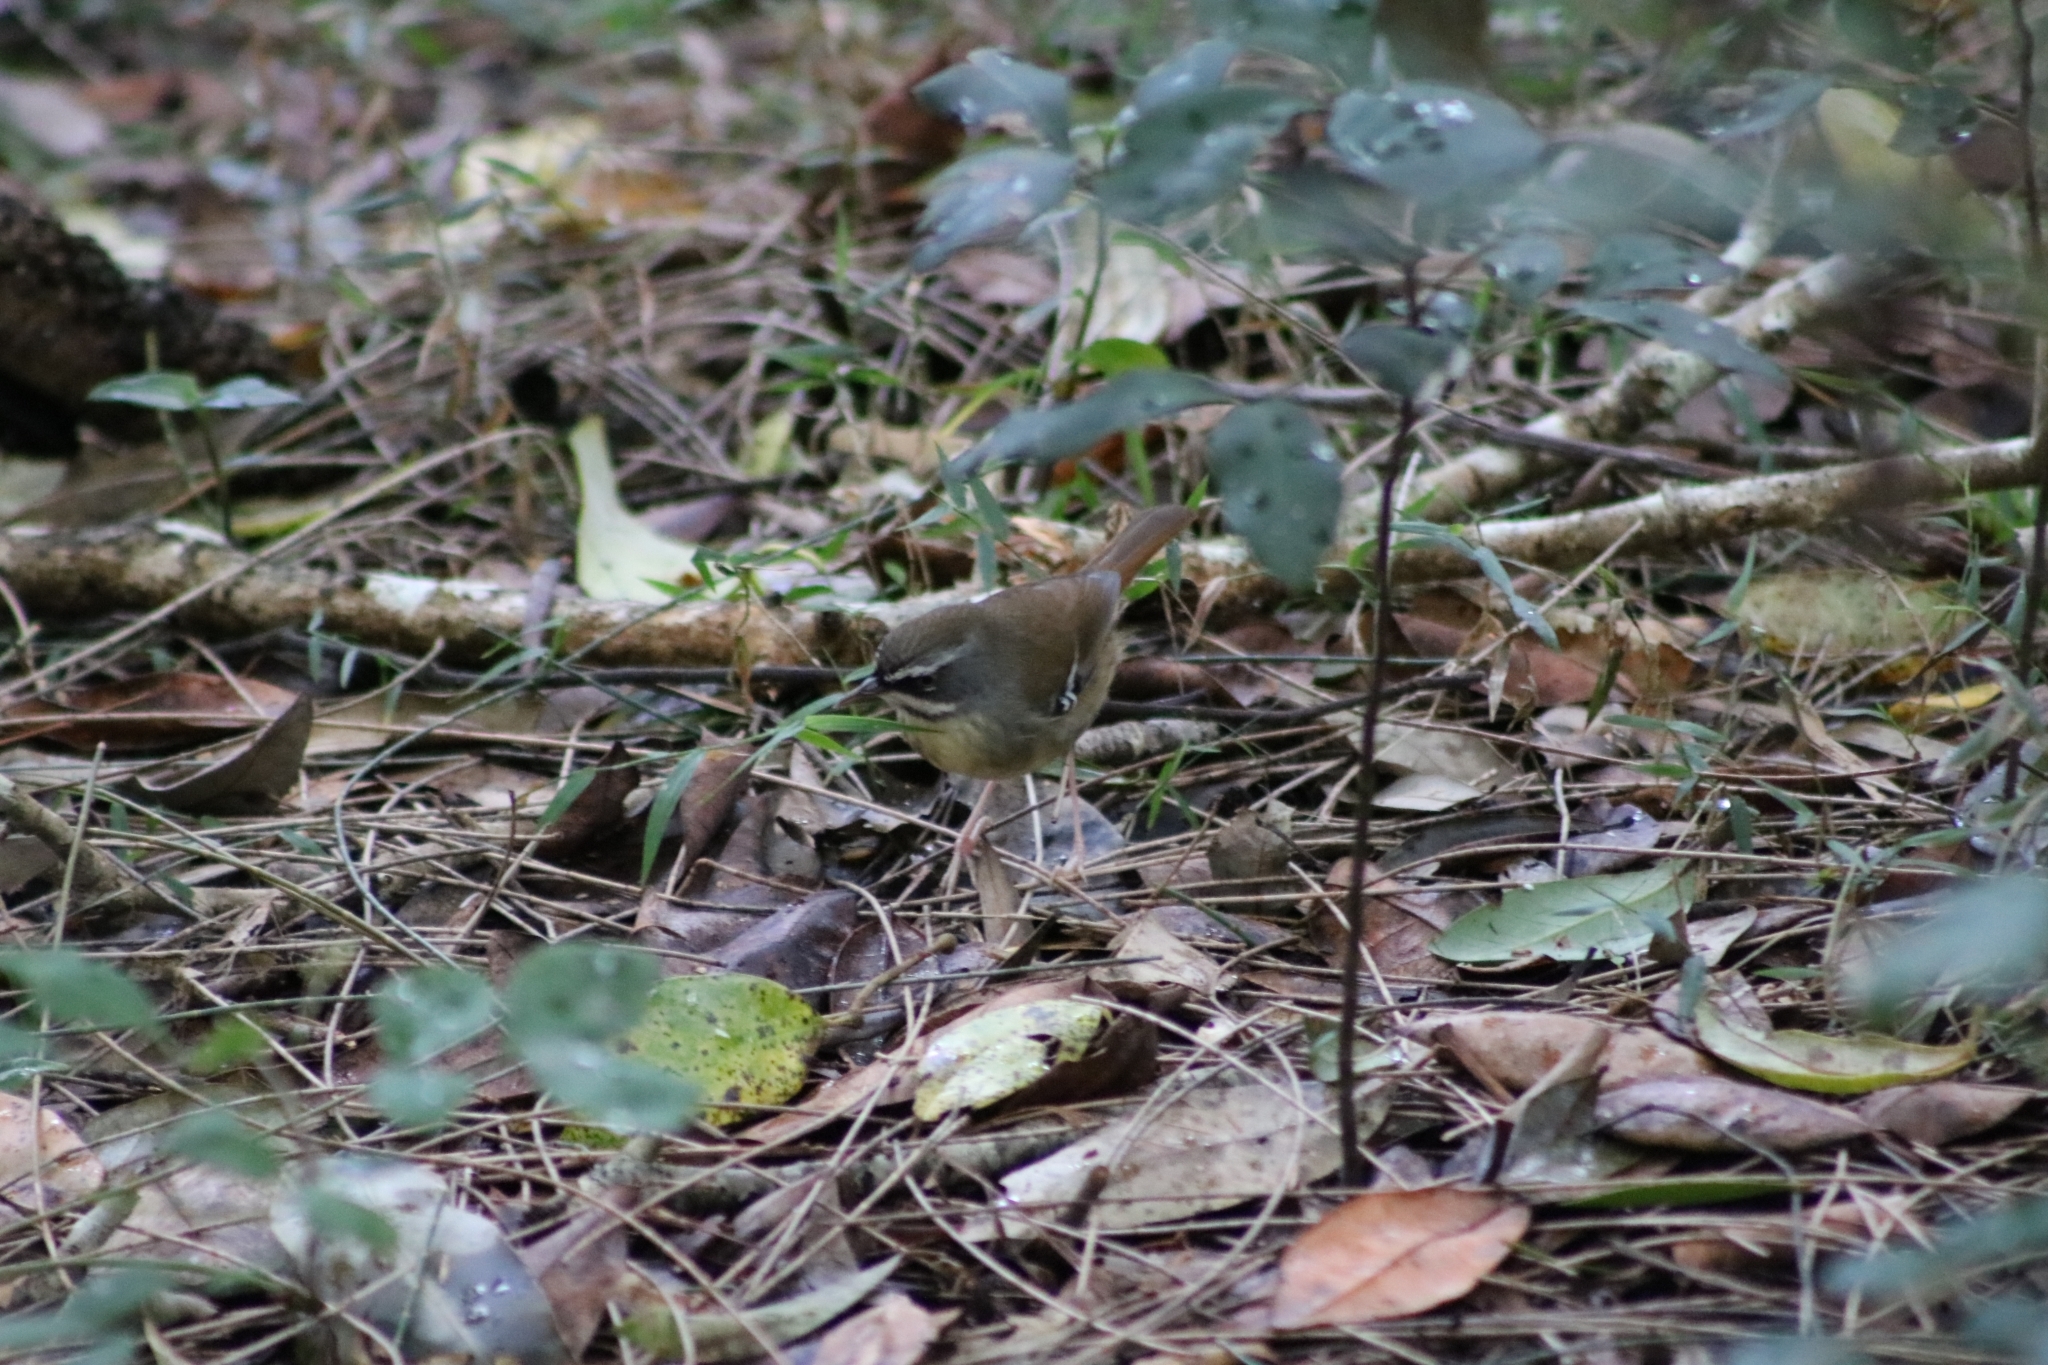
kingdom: Animalia
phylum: Chordata
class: Aves
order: Passeriformes
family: Acanthizidae
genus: Sericornis
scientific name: Sericornis frontalis
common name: White-browed scrubwren
